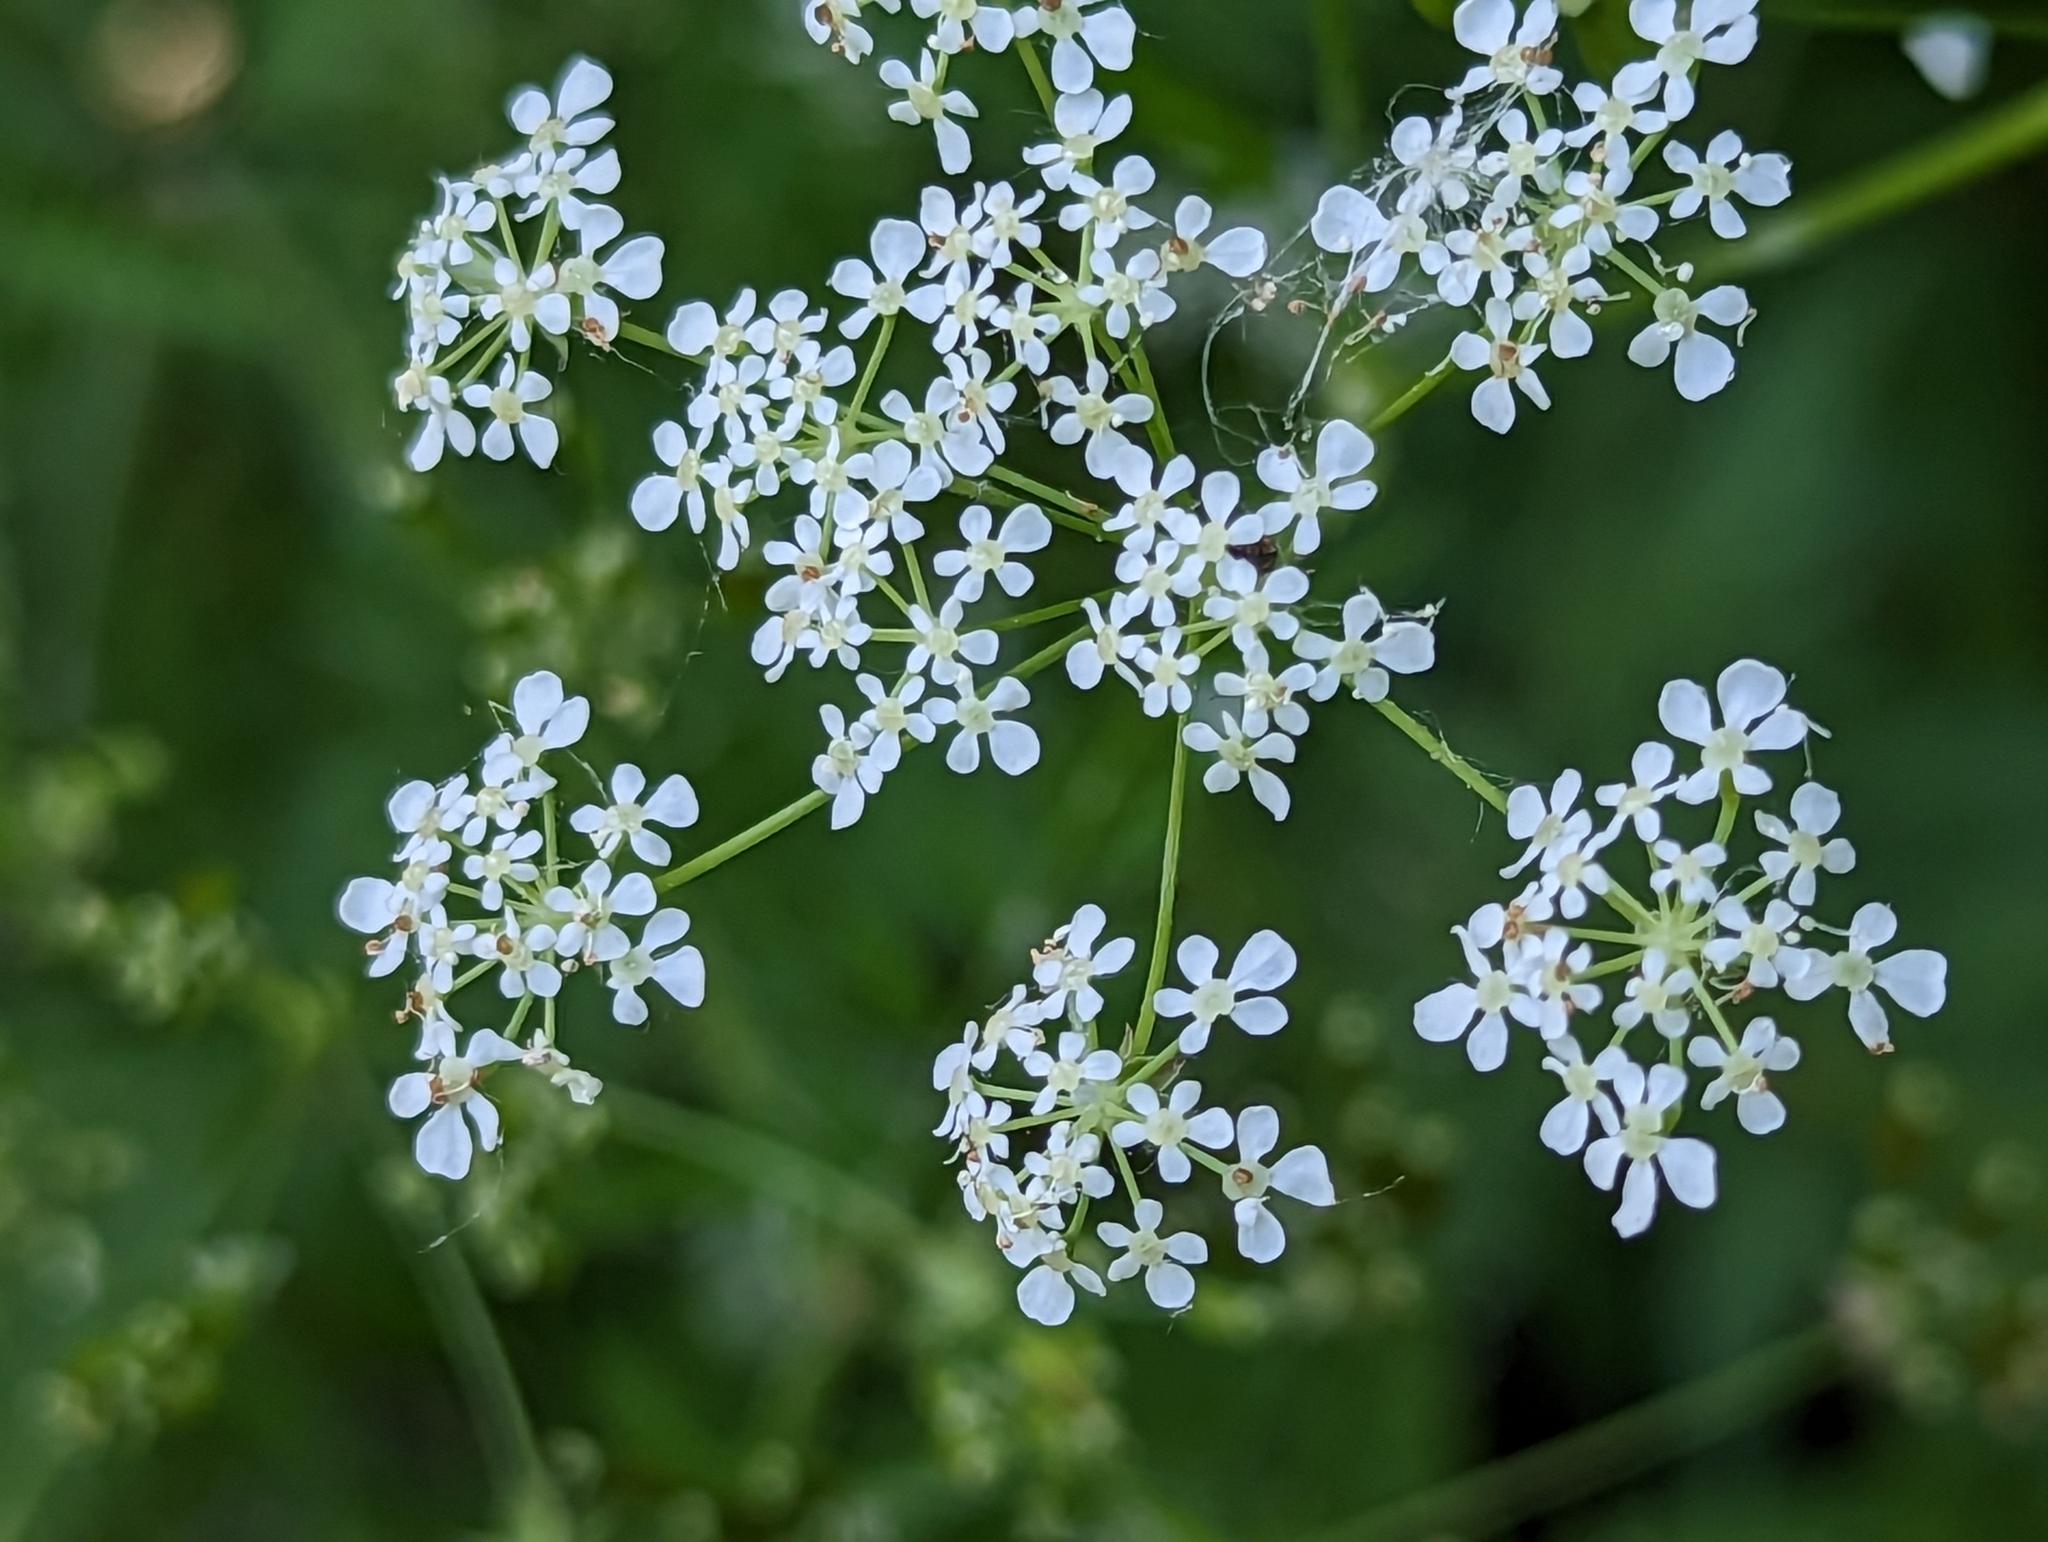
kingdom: Plantae
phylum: Tracheophyta
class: Magnoliopsida
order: Apiales
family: Apiaceae
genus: Anthriscus
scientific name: Anthriscus sylvestris
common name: Cow parsley
